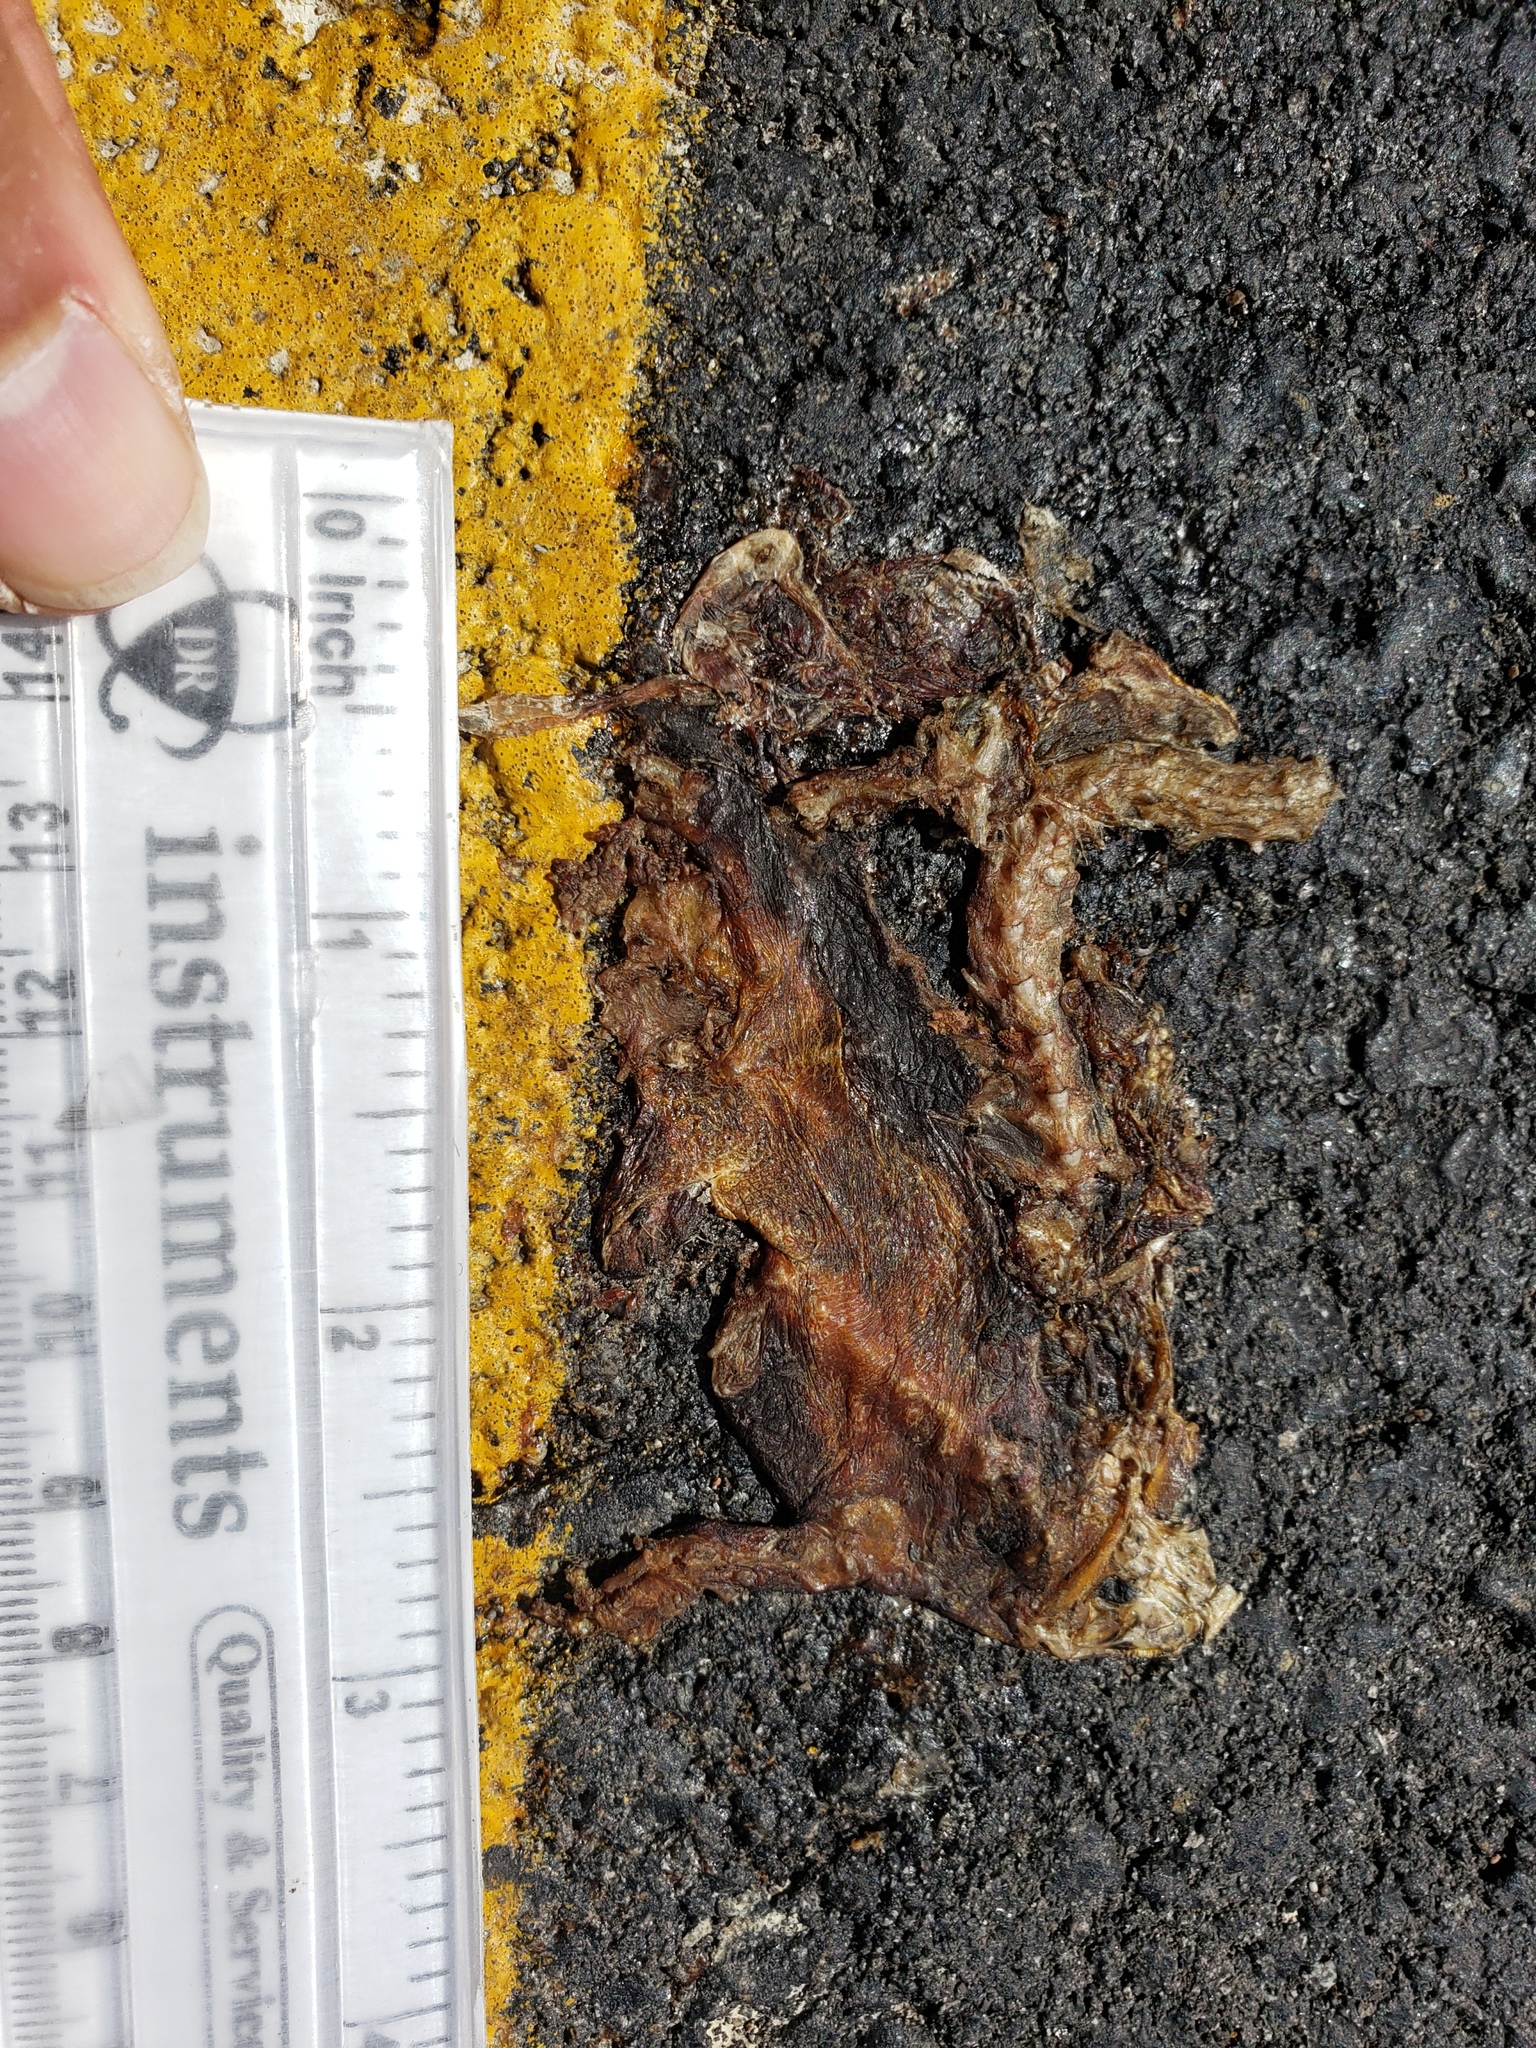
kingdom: Animalia
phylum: Chordata
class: Amphibia
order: Caudata
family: Salamandridae
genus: Taricha
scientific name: Taricha
